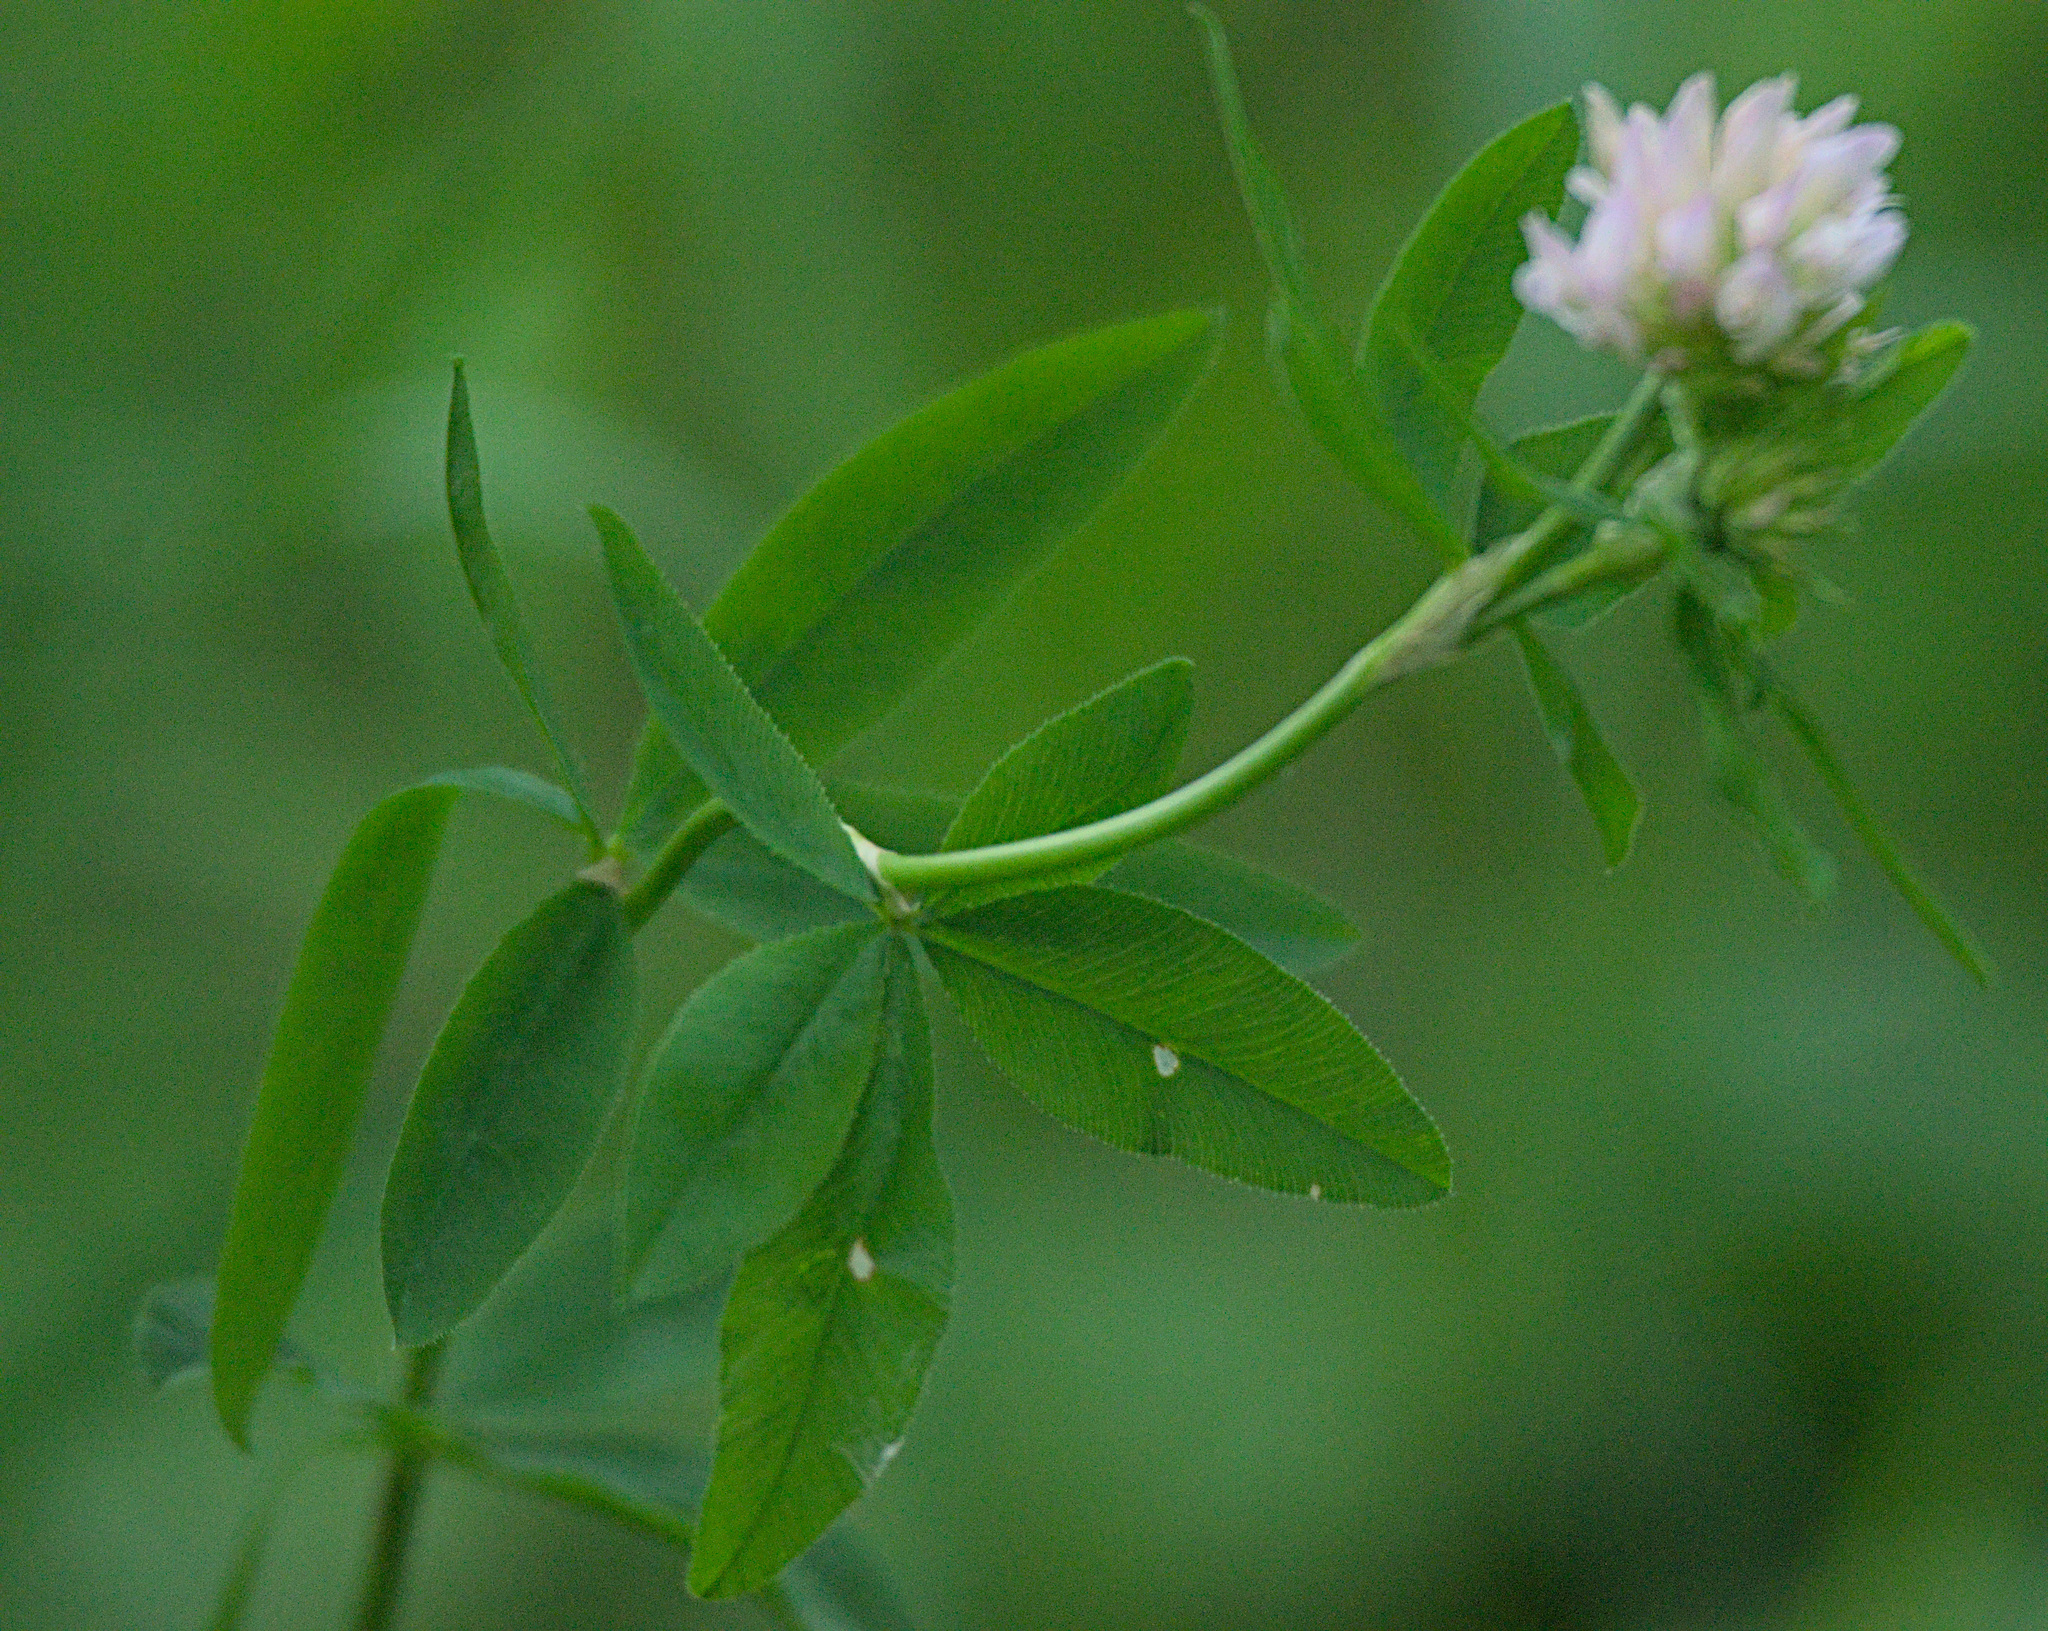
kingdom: Plantae
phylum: Tracheophyta
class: Magnoliopsida
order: Fabales
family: Fabaceae
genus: Trifolium
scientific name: Trifolium lupinaster
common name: Lupine clover
